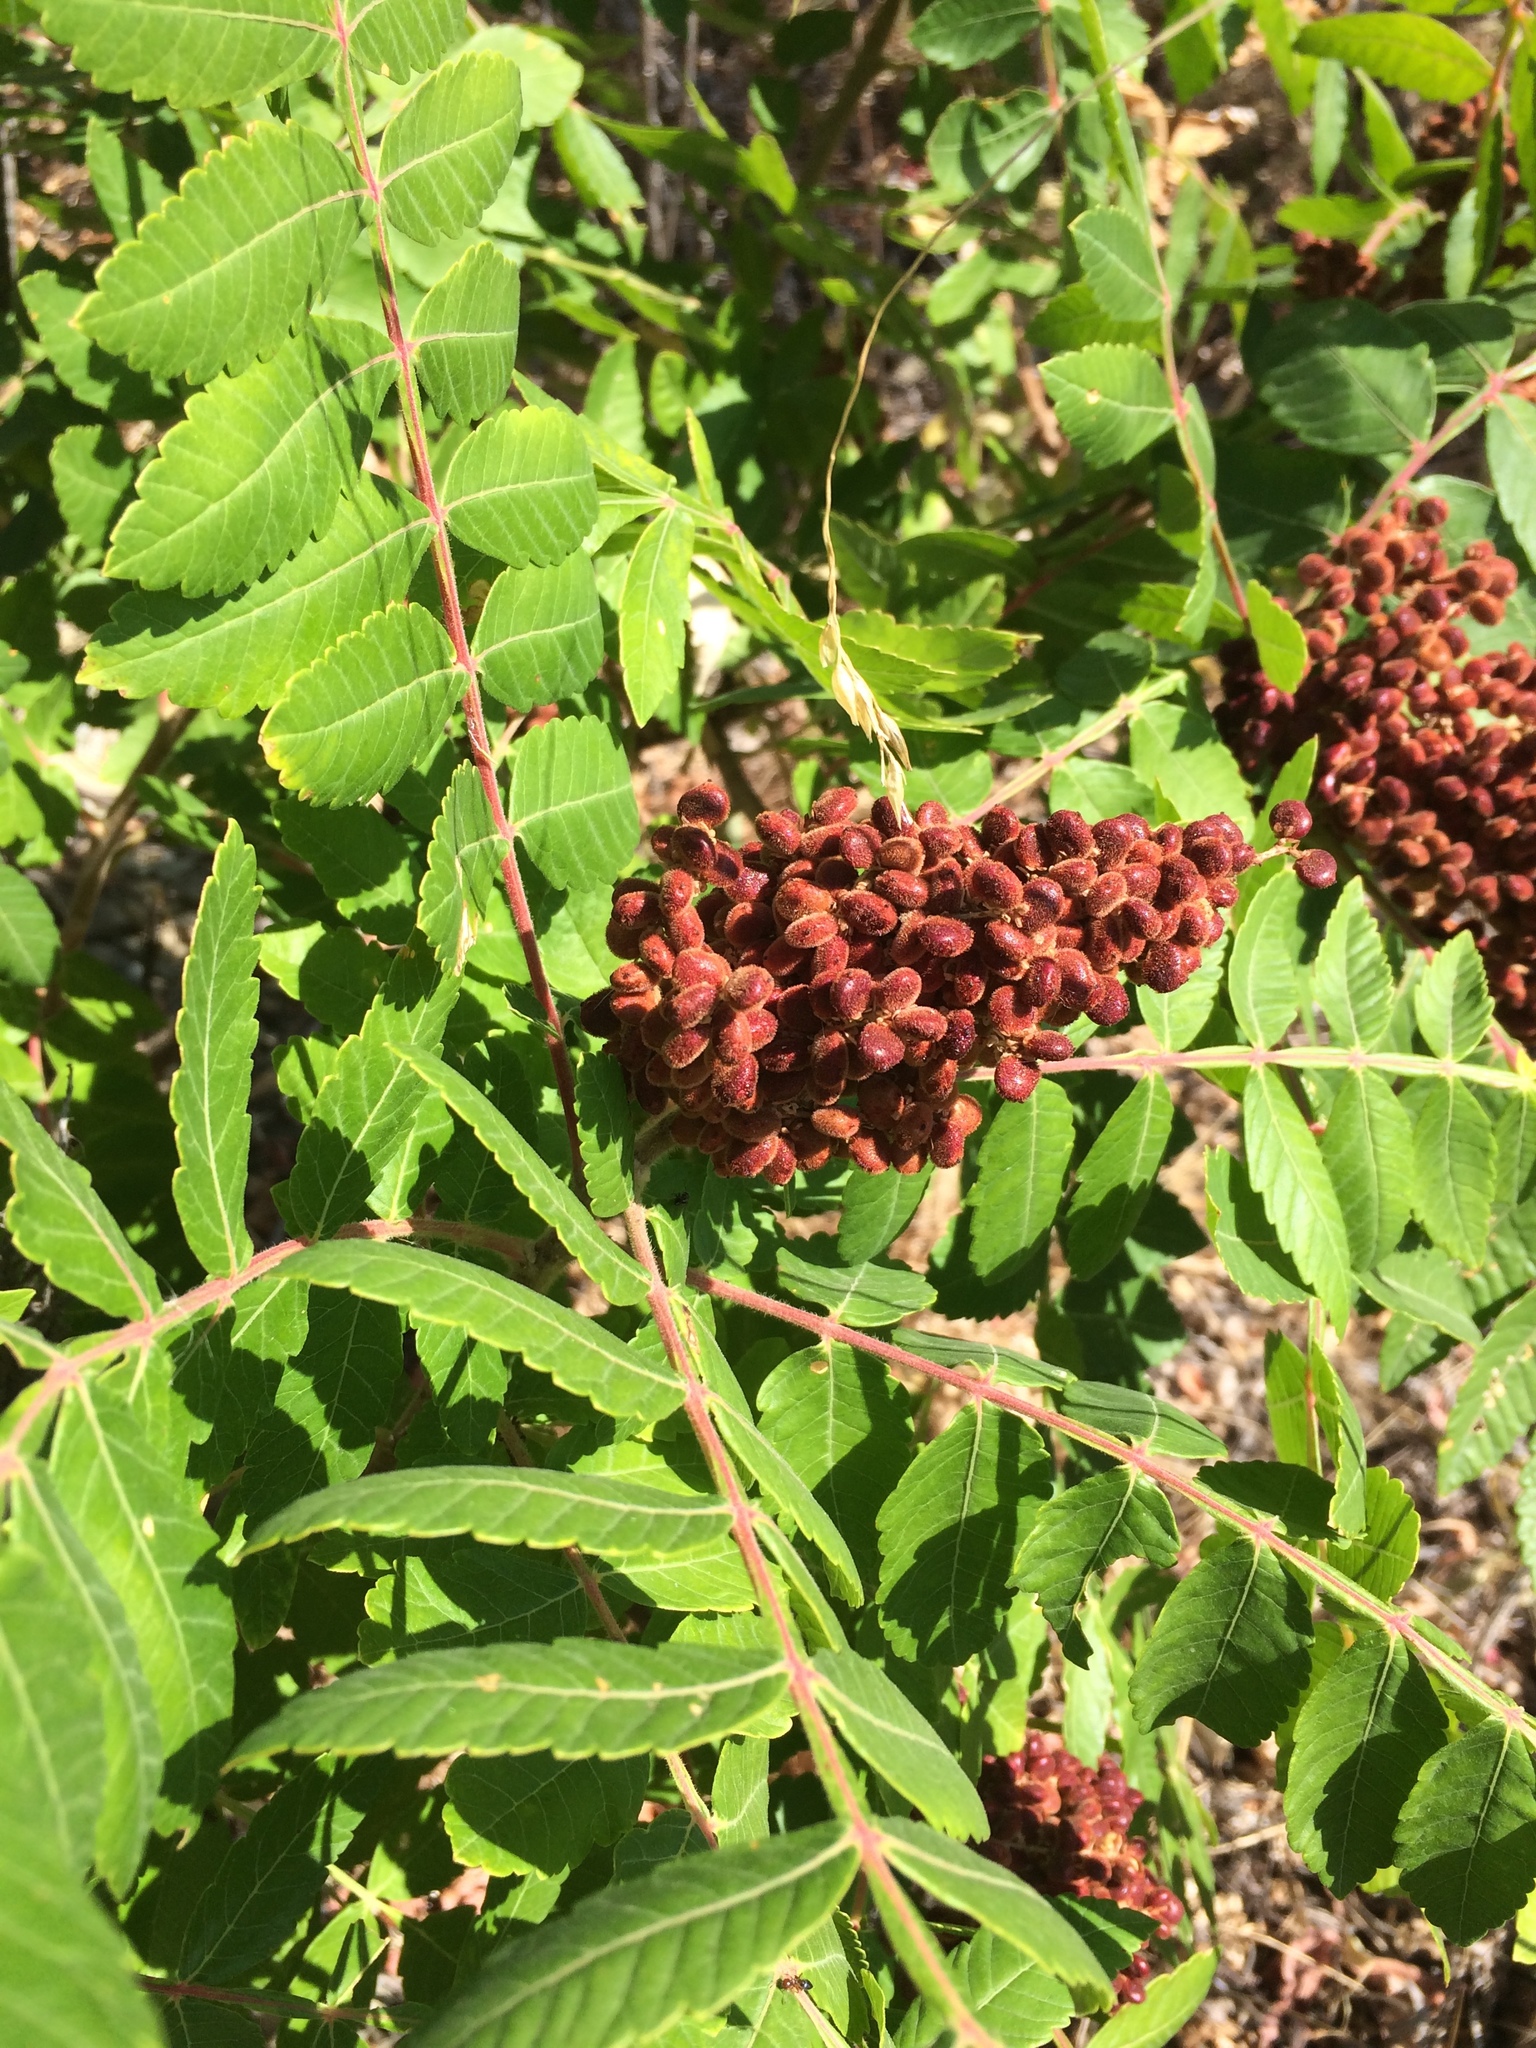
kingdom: Plantae
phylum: Tracheophyta
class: Magnoliopsida
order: Sapindales
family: Anacardiaceae
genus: Rhus
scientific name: Rhus coriaria
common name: Tanner's sumach
